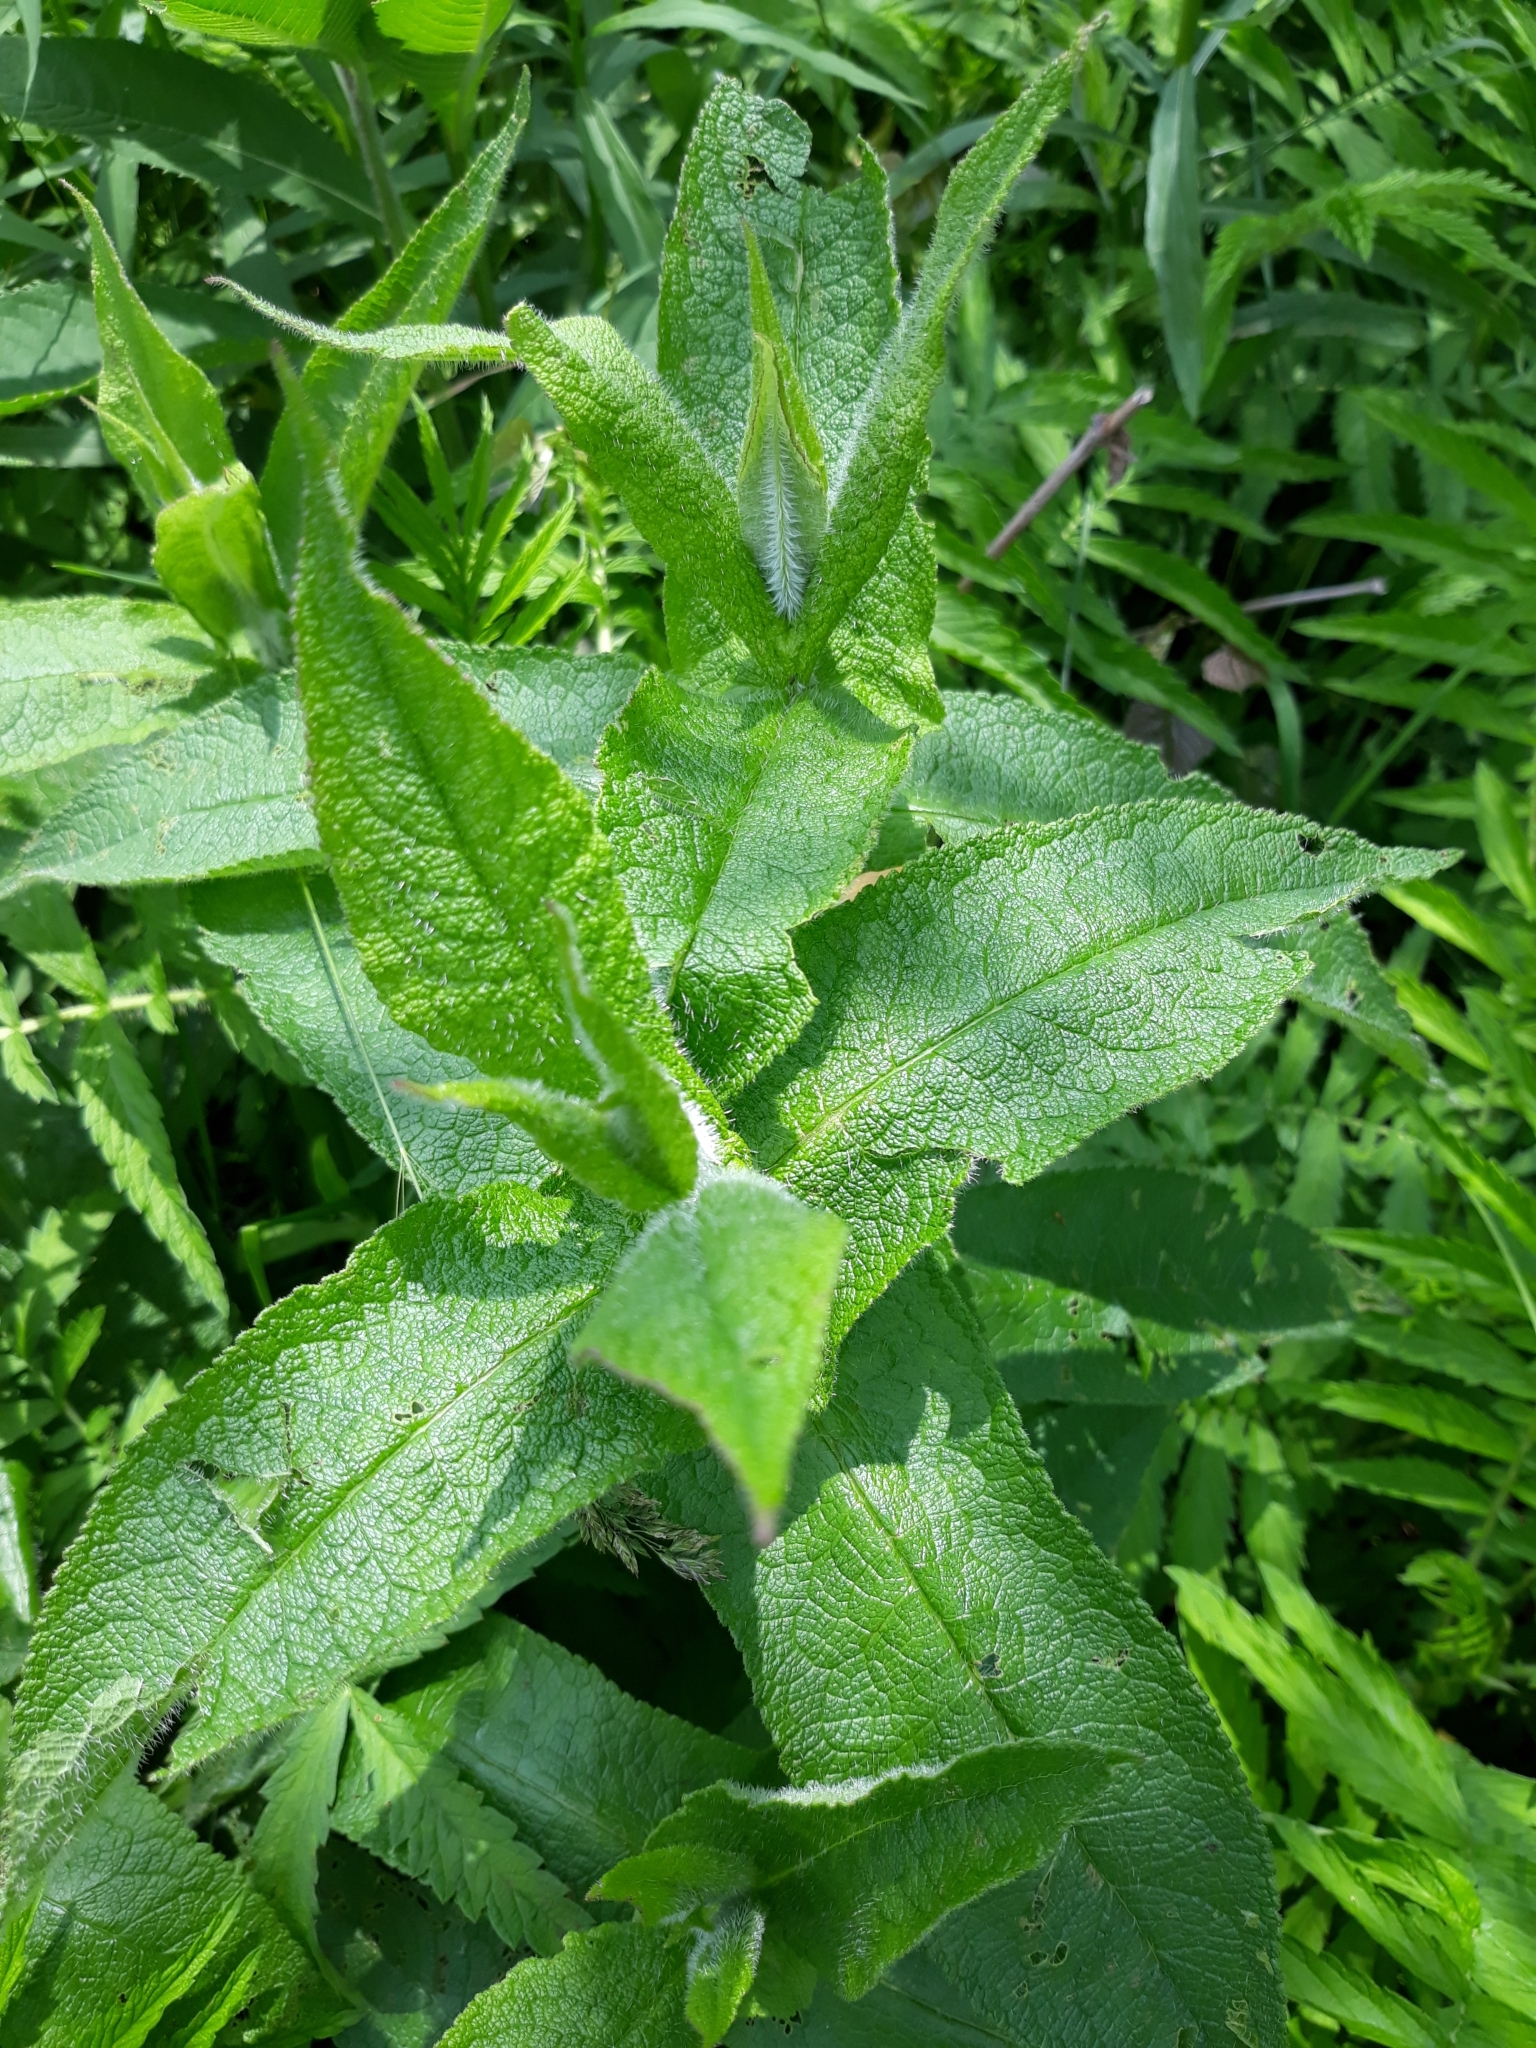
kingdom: Plantae
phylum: Tracheophyta
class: Magnoliopsida
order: Asterales
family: Asteraceae
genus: Eupatorium
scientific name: Eupatorium perfoliatum
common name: Boneset
